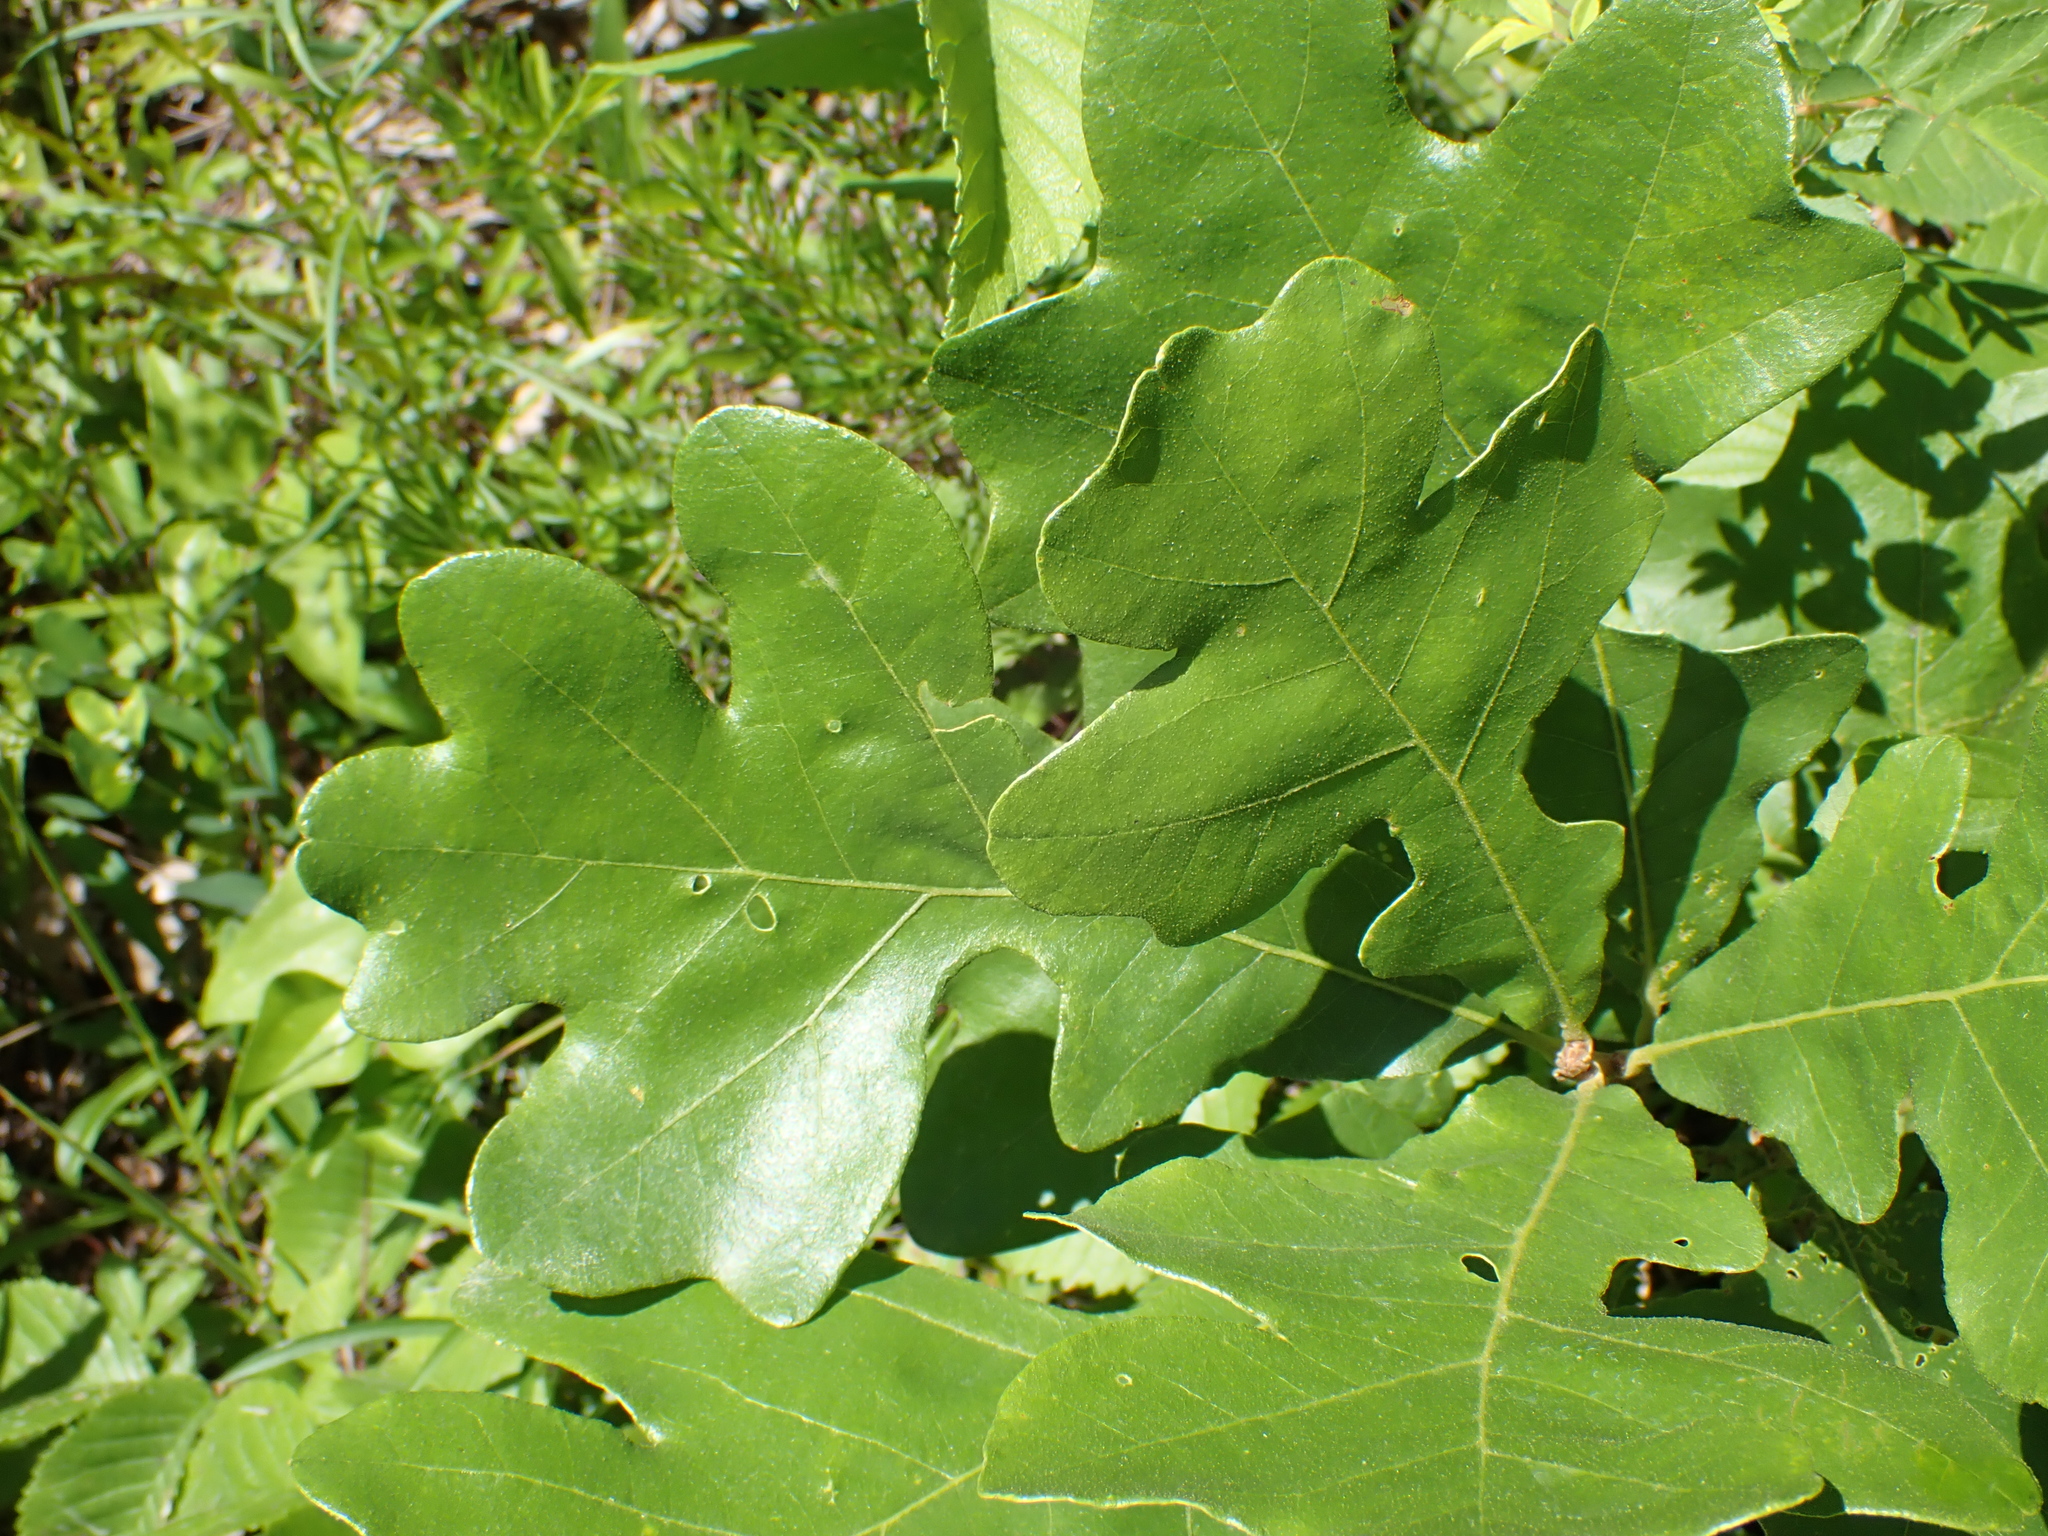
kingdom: Plantae
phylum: Tracheophyta
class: Magnoliopsida
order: Fagales
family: Fagaceae
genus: Quercus
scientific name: Quercus stellata
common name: Post oak
